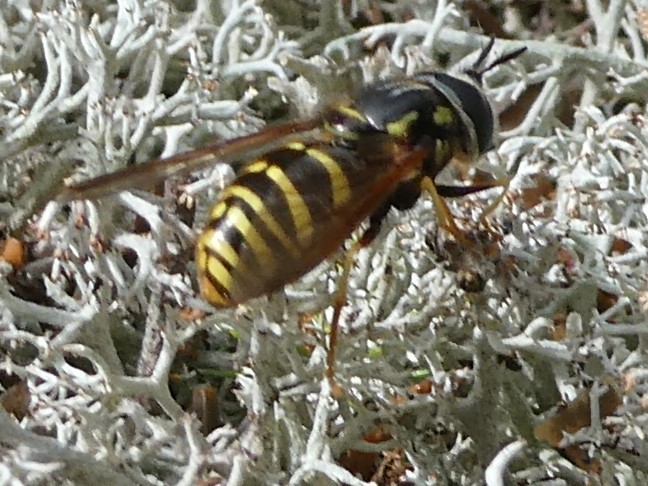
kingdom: Animalia
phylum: Arthropoda
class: Insecta
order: Diptera
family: Syrphidae
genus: Chrysotoxum
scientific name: Chrysotoxum
